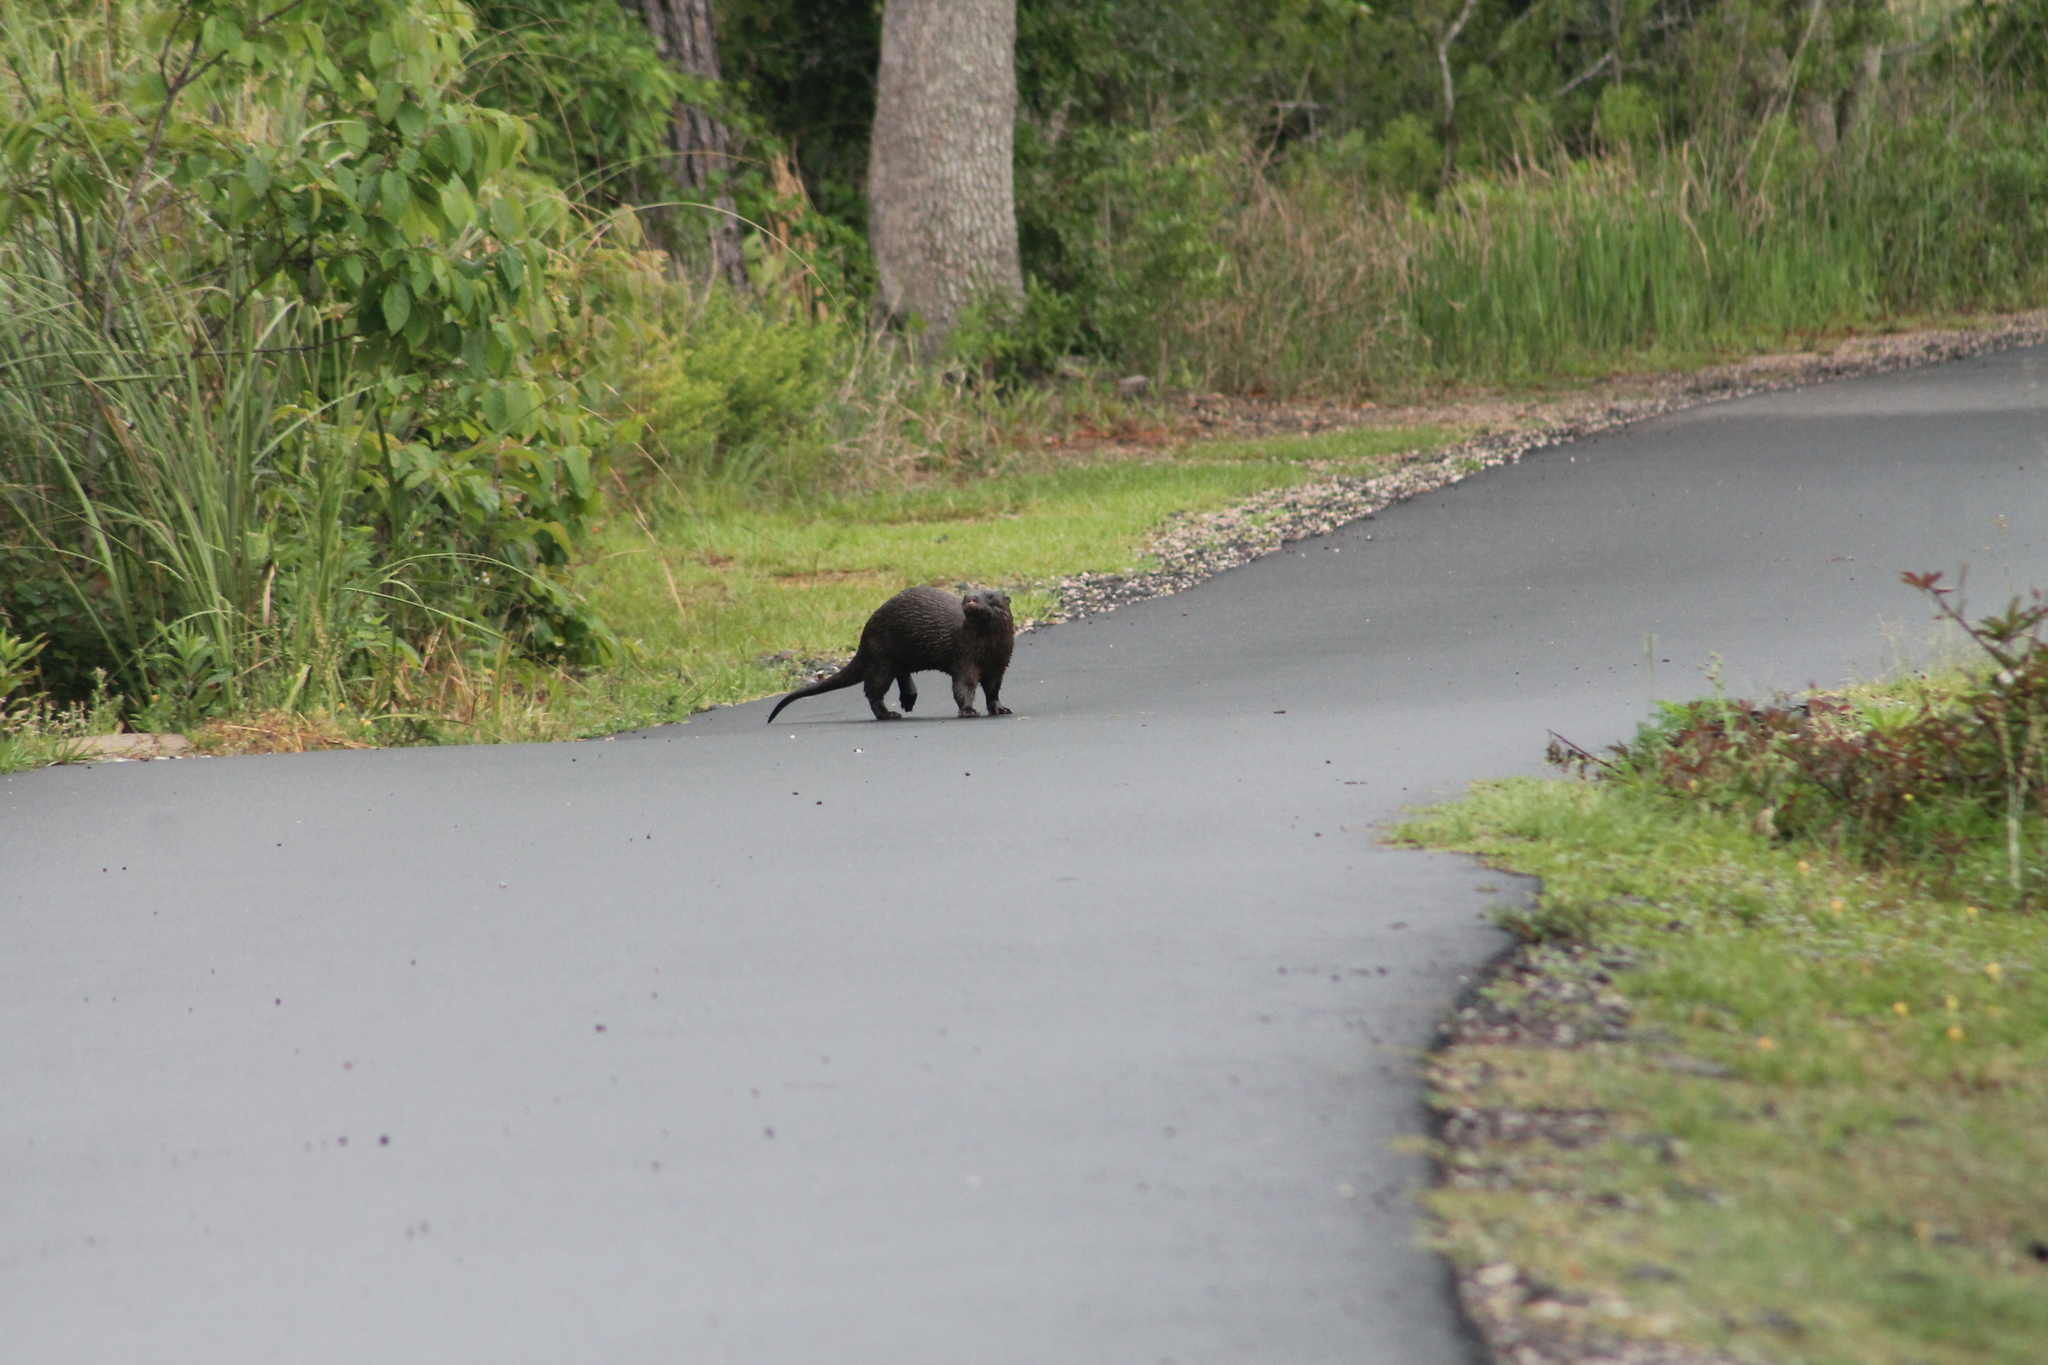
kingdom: Animalia
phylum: Chordata
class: Mammalia
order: Carnivora
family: Mustelidae
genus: Lontra
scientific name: Lontra canadensis
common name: North american river otter
